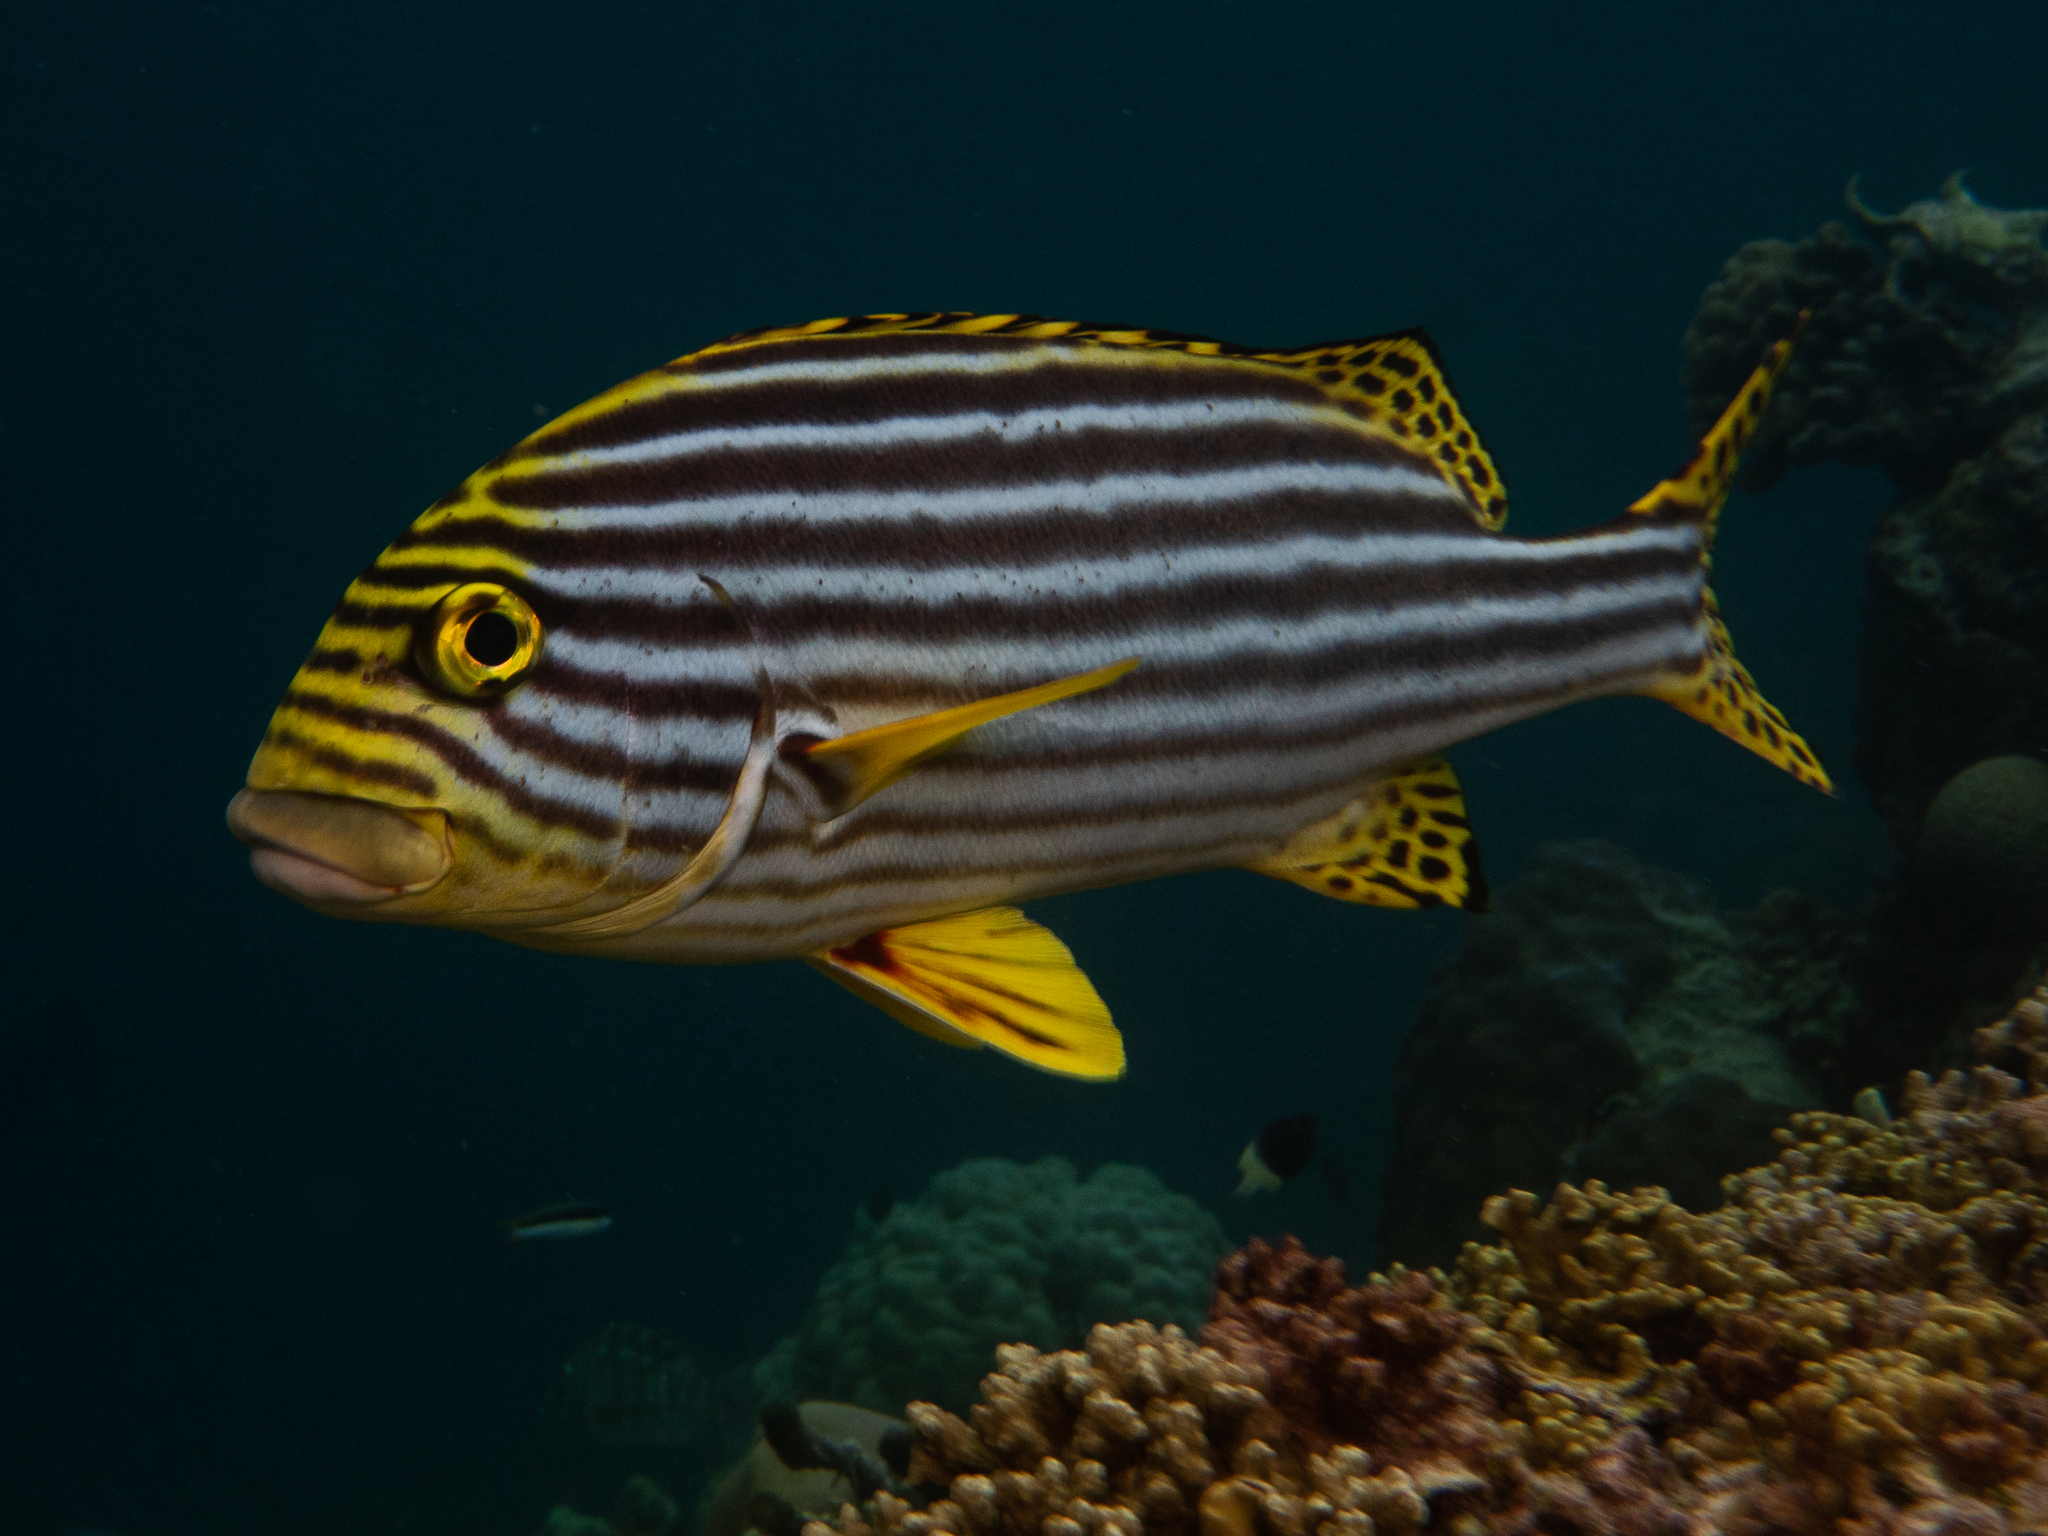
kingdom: Animalia
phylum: Chordata
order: Perciformes
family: Haemulidae
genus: Plectorhinchus
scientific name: Plectorhinchus vittatus
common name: Oriental sweetlips
